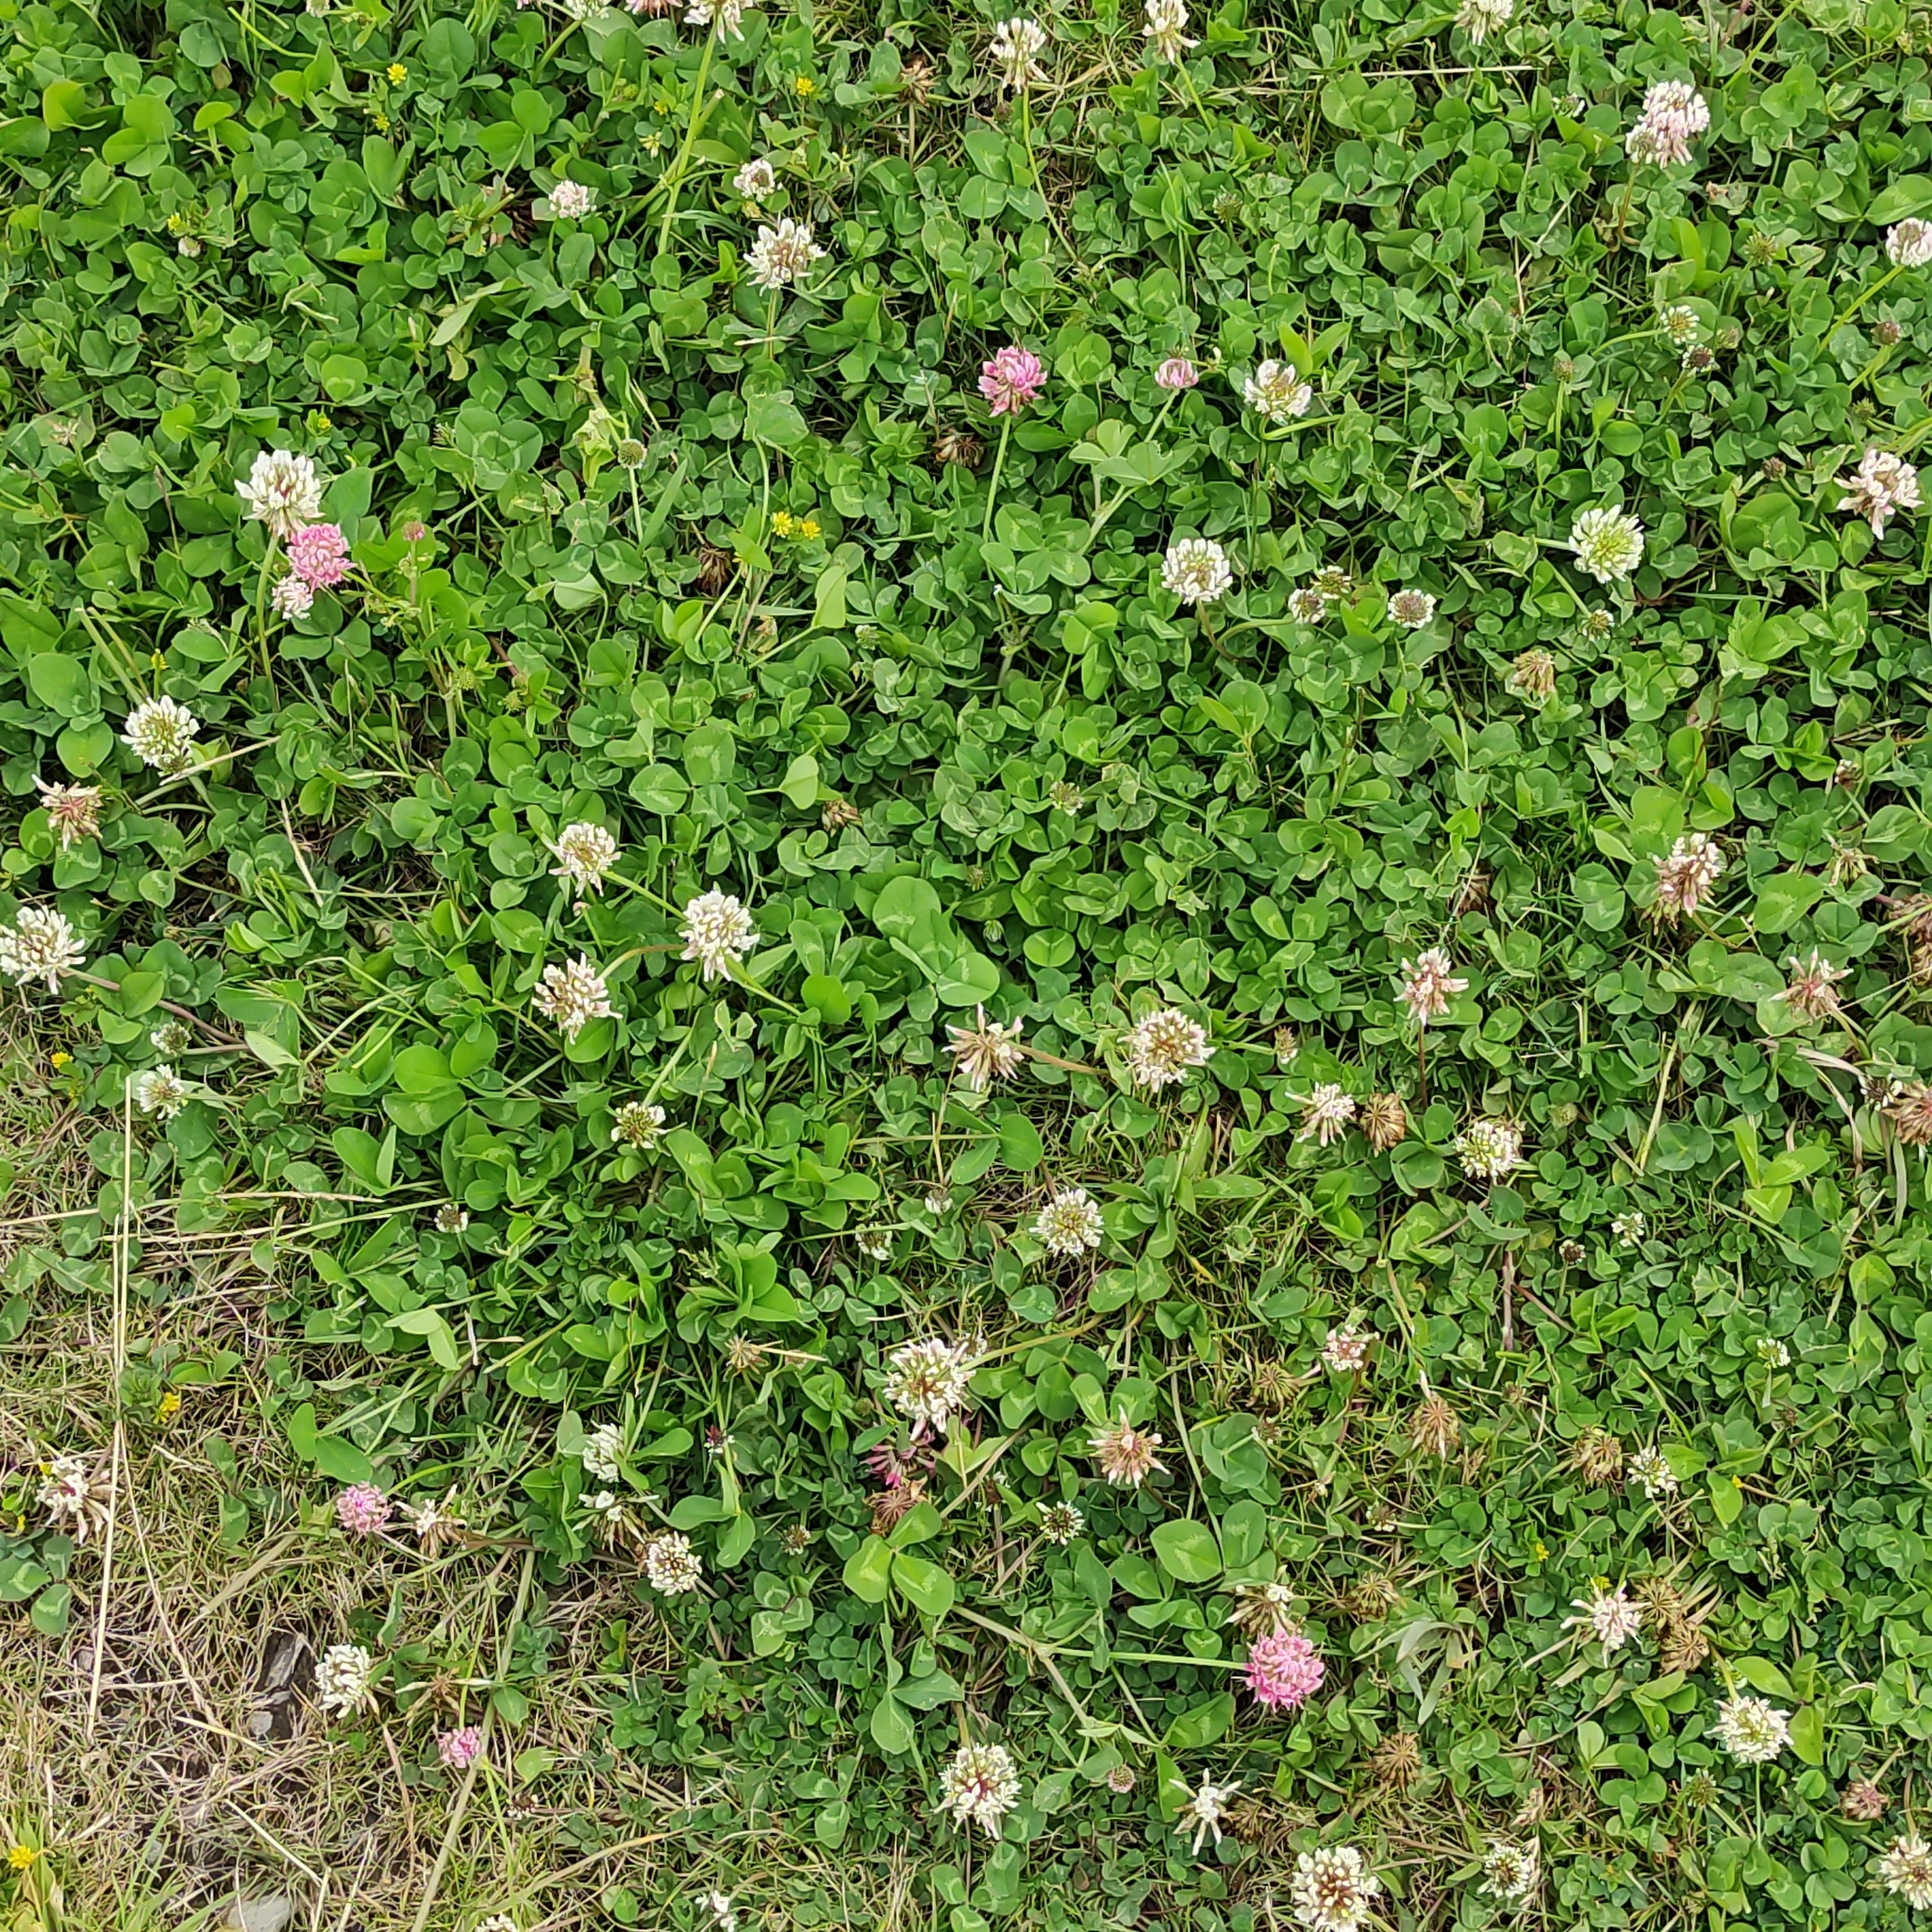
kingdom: Plantae
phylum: Tracheophyta
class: Magnoliopsida
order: Fabales
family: Fabaceae
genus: Trifolium
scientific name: Trifolium repens
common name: White clover
